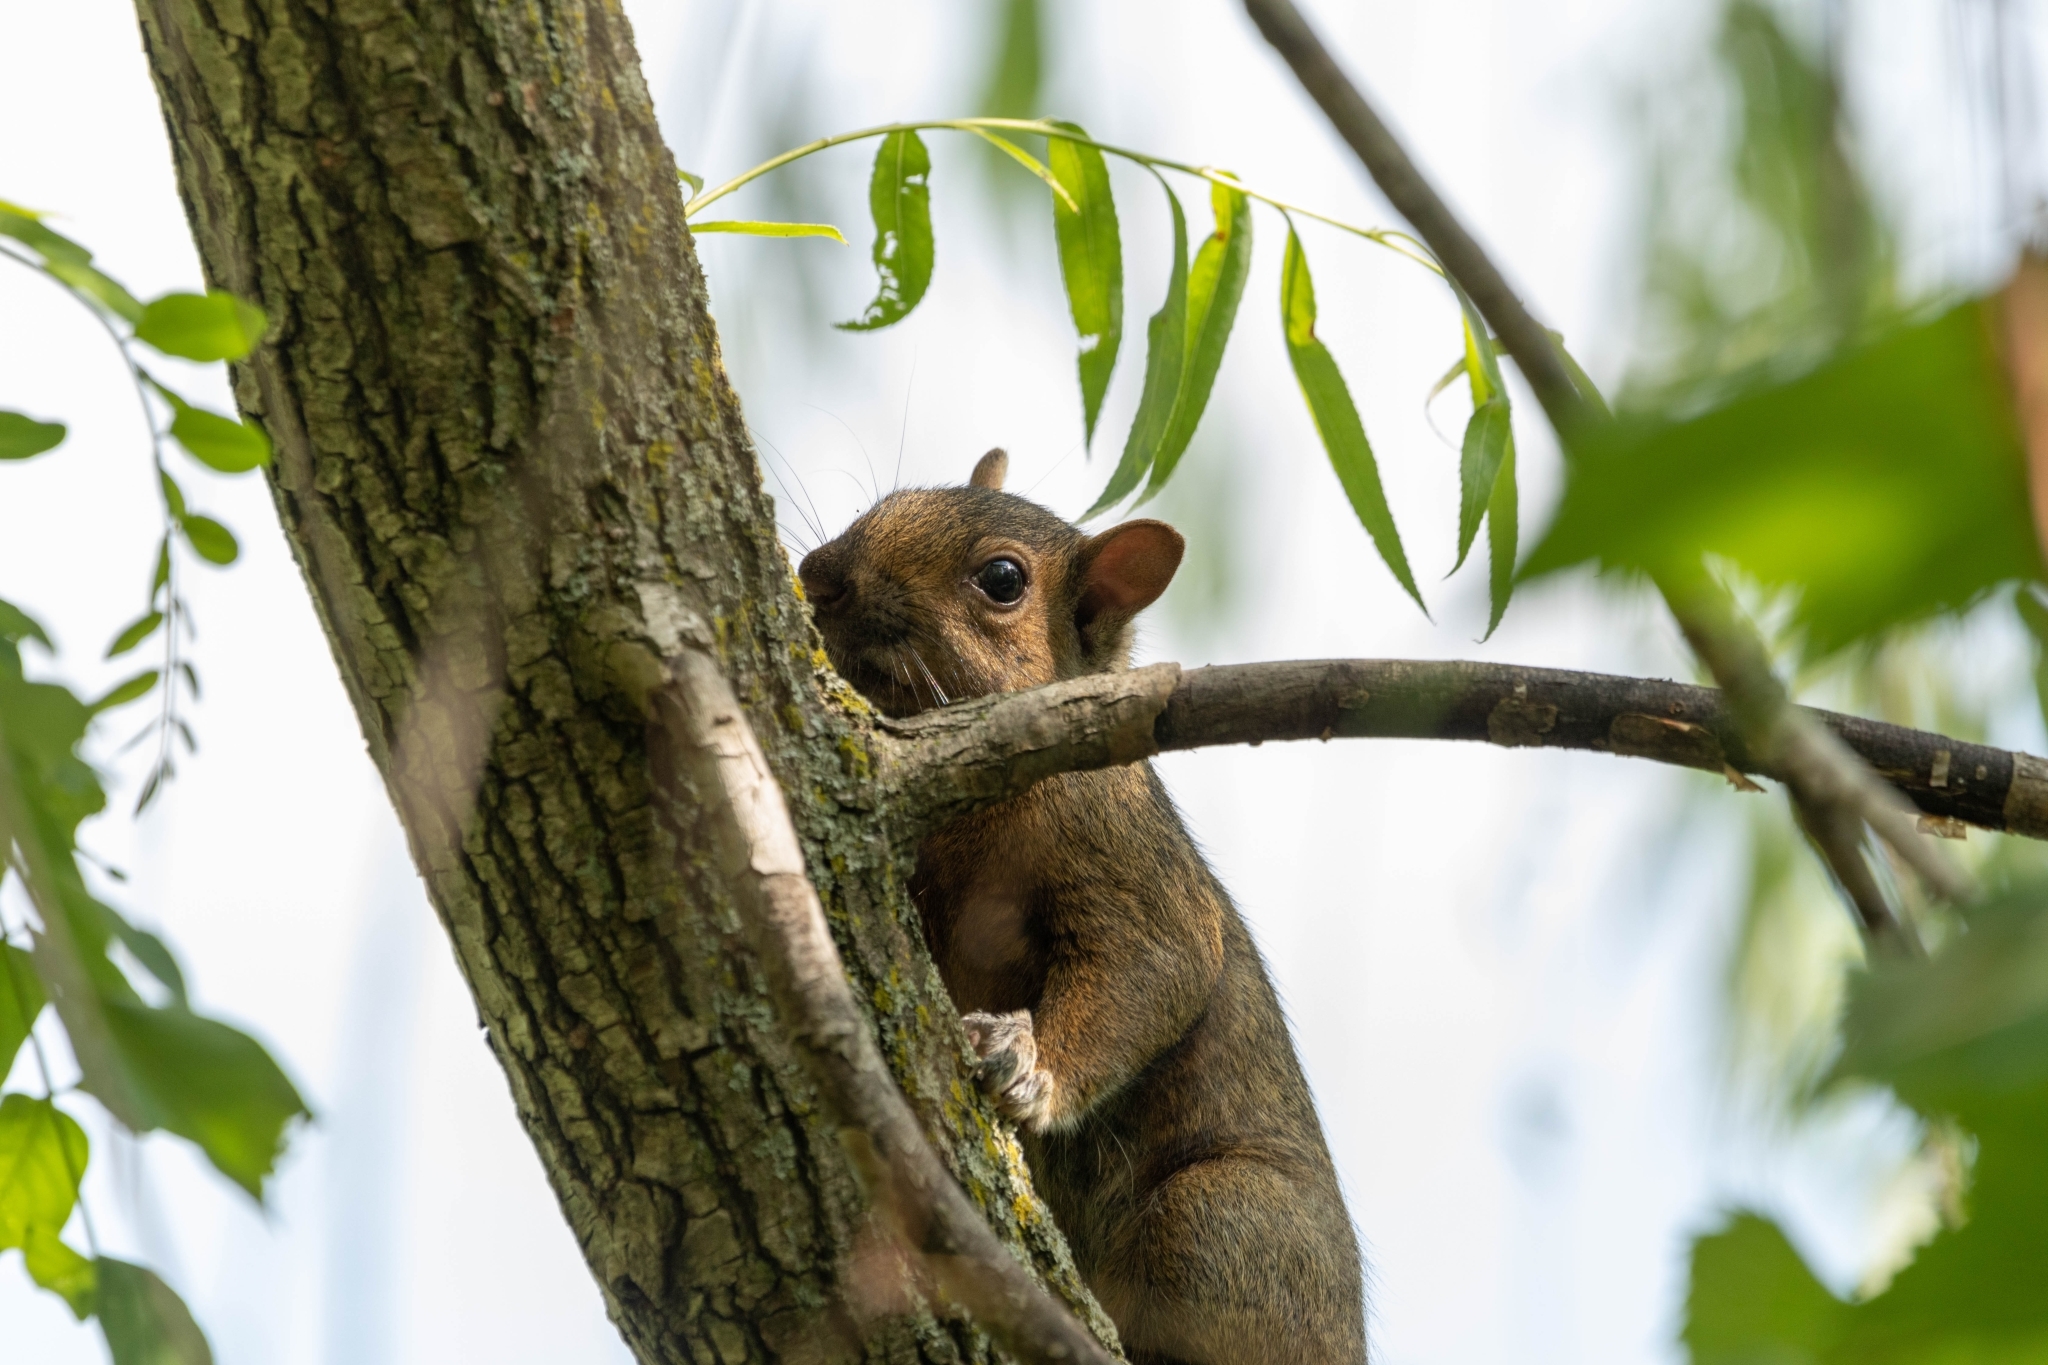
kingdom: Animalia
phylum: Chordata
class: Mammalia
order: Rodentia
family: Sciuridae
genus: Sciurus
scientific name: Sciurus carolinensis
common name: Eastern gray squirrel
